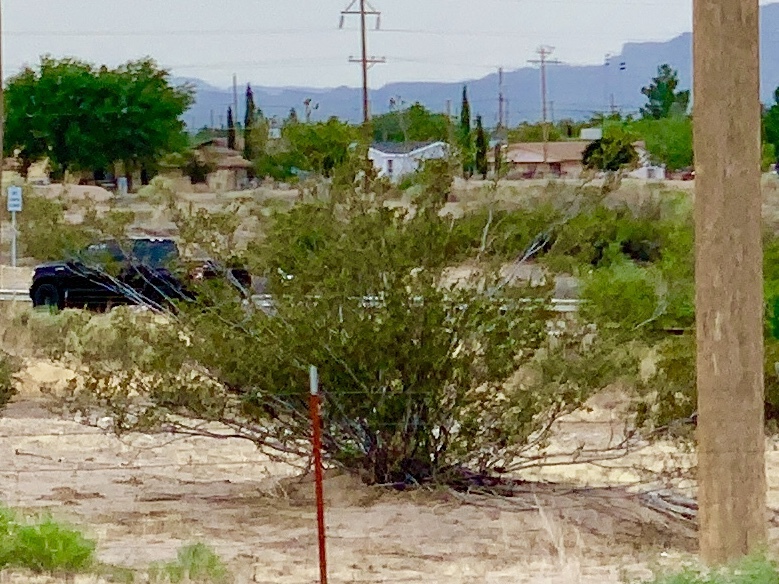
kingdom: Plantae
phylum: Tracheophyta
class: Magnoliopsida
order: Zygophyllales
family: Zygophyllaceae
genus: Larrea
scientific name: Larrea tridentata
